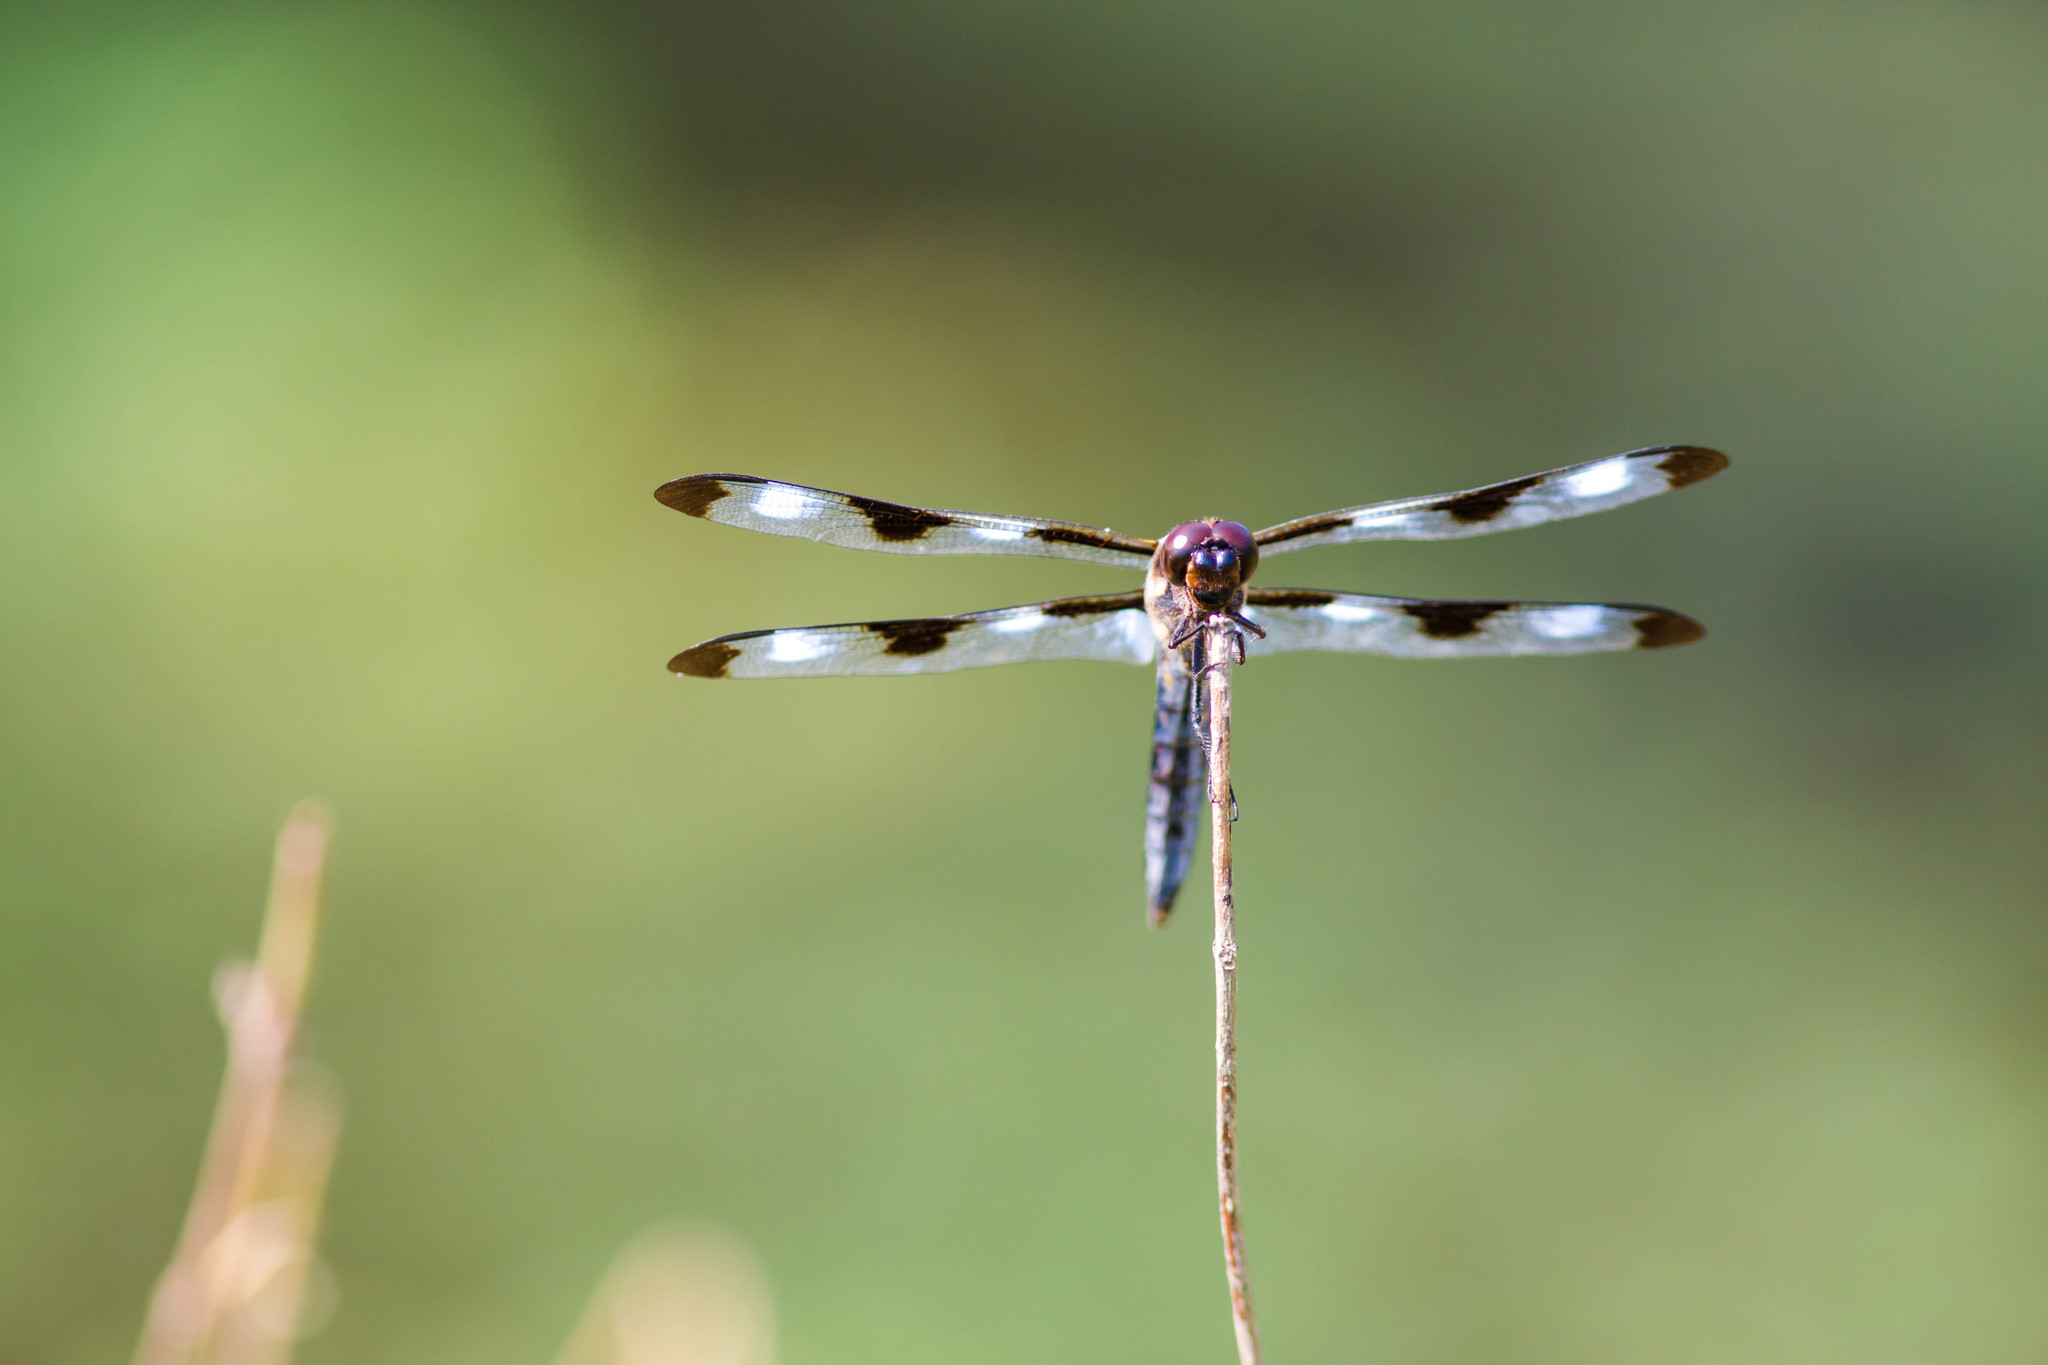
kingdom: Animalia
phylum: Arthropoda
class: Insecta
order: Odonata
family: Libellulidae
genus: Libellula
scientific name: Libellula pulchella
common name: Twelve-spotted skimmer
